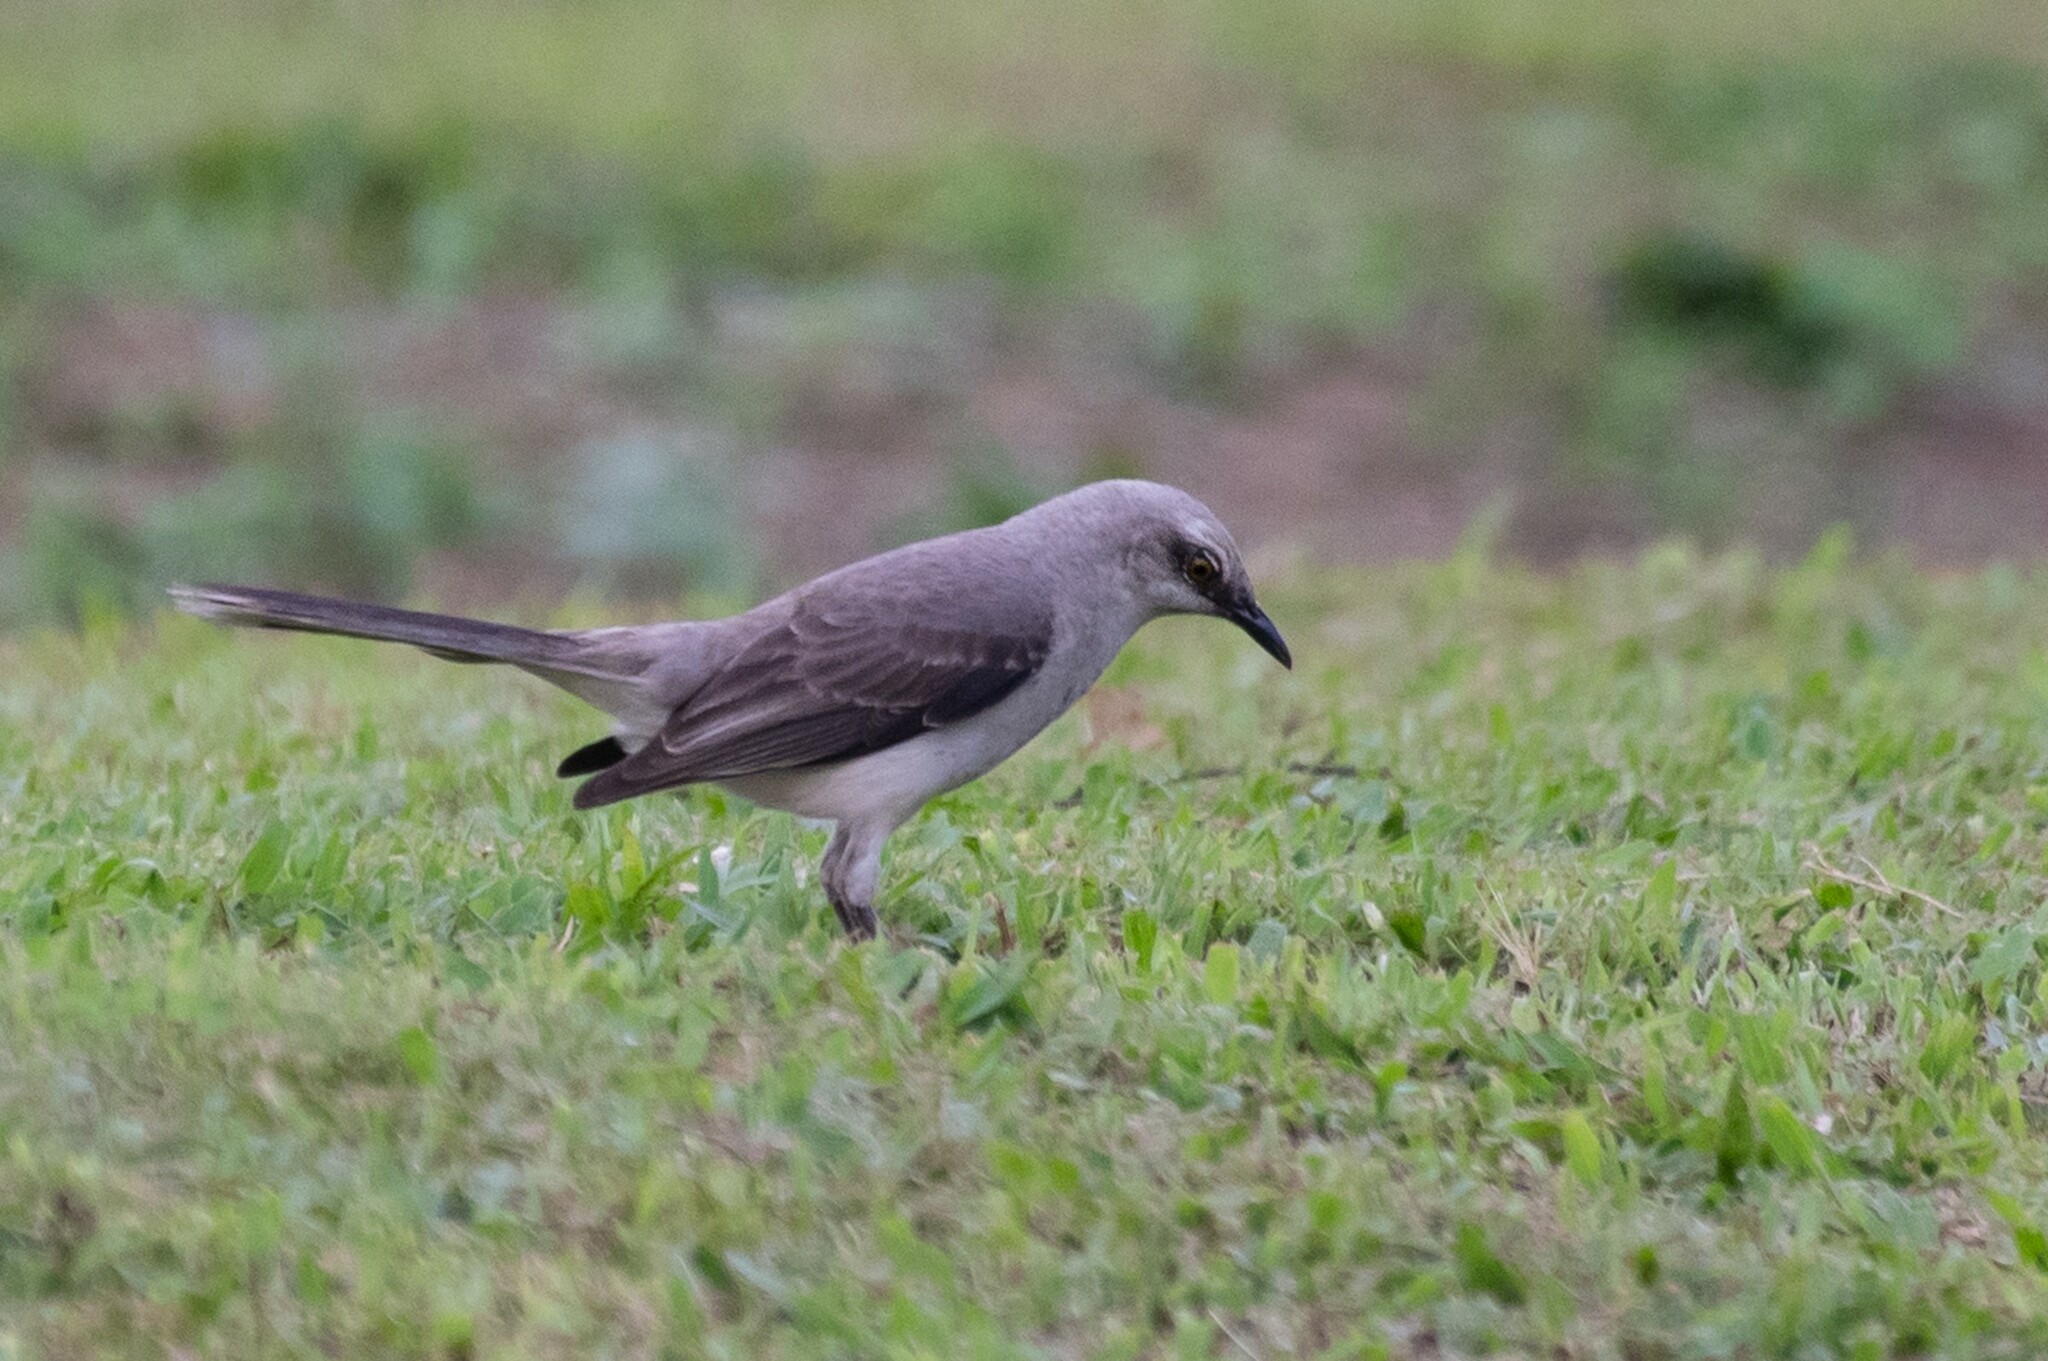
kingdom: Animalia
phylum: Chordata
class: Aves
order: Passeriformes
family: Mimidae
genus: Mimus
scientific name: Mimus gilvus
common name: Tropical mockingbird
